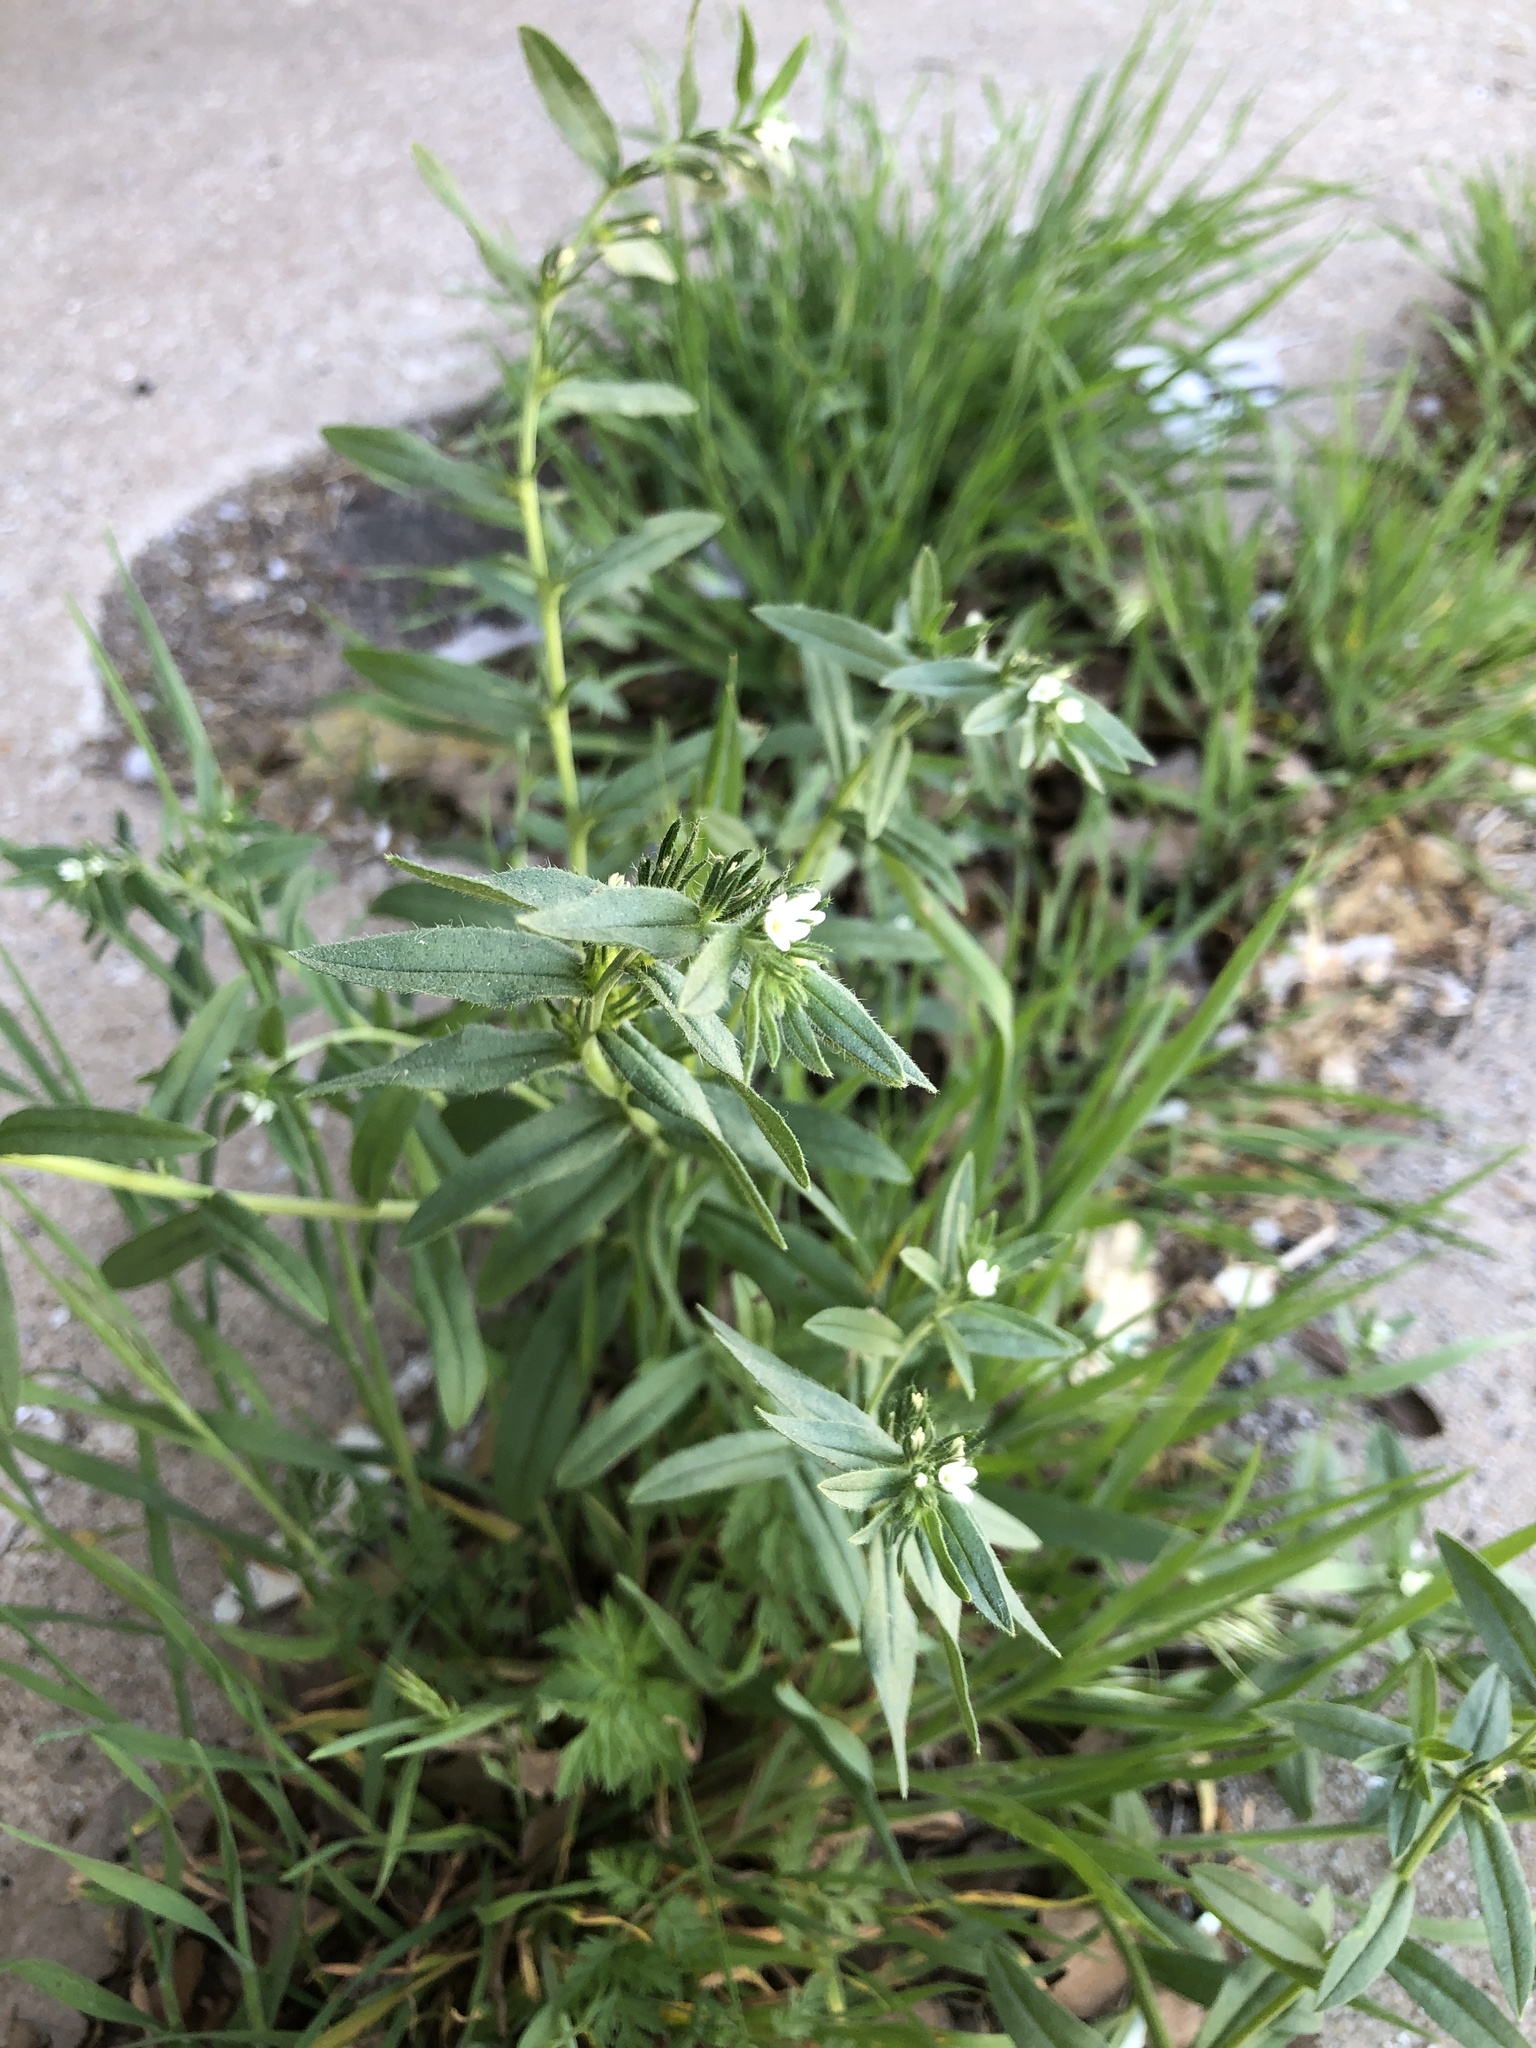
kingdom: Plantae
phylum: Tracheophyta
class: Magnoliopsida
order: Boraginales
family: Boraginaceae
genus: Buglossoides
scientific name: Buglossoides arvensis
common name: Corn gromwell
